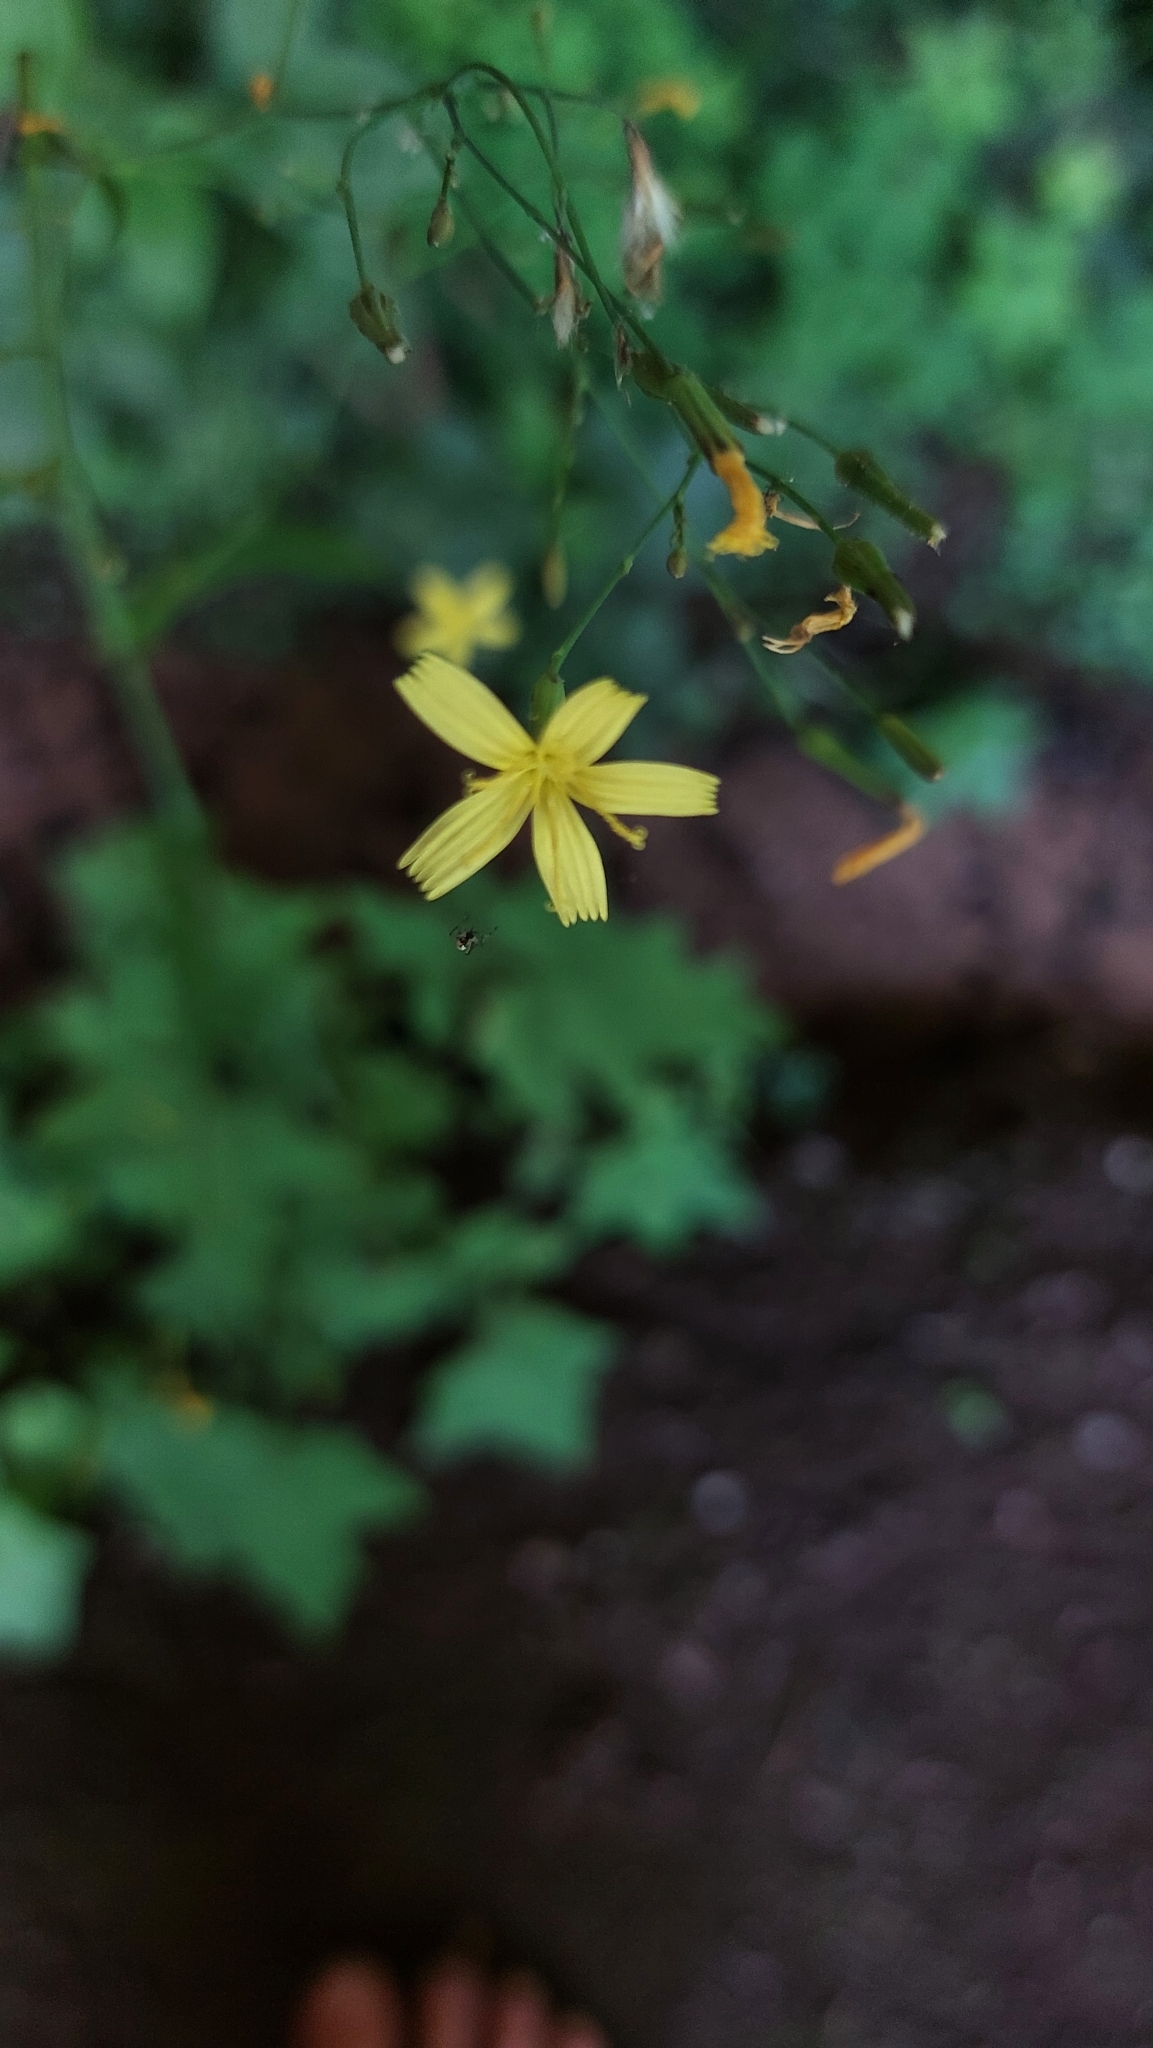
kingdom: Plantae
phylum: Tracheophyta
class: Magnoliopsida
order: Asterales
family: Asteraceae
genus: Mycelis
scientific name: Mycelis muralis
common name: Wall lettuce
